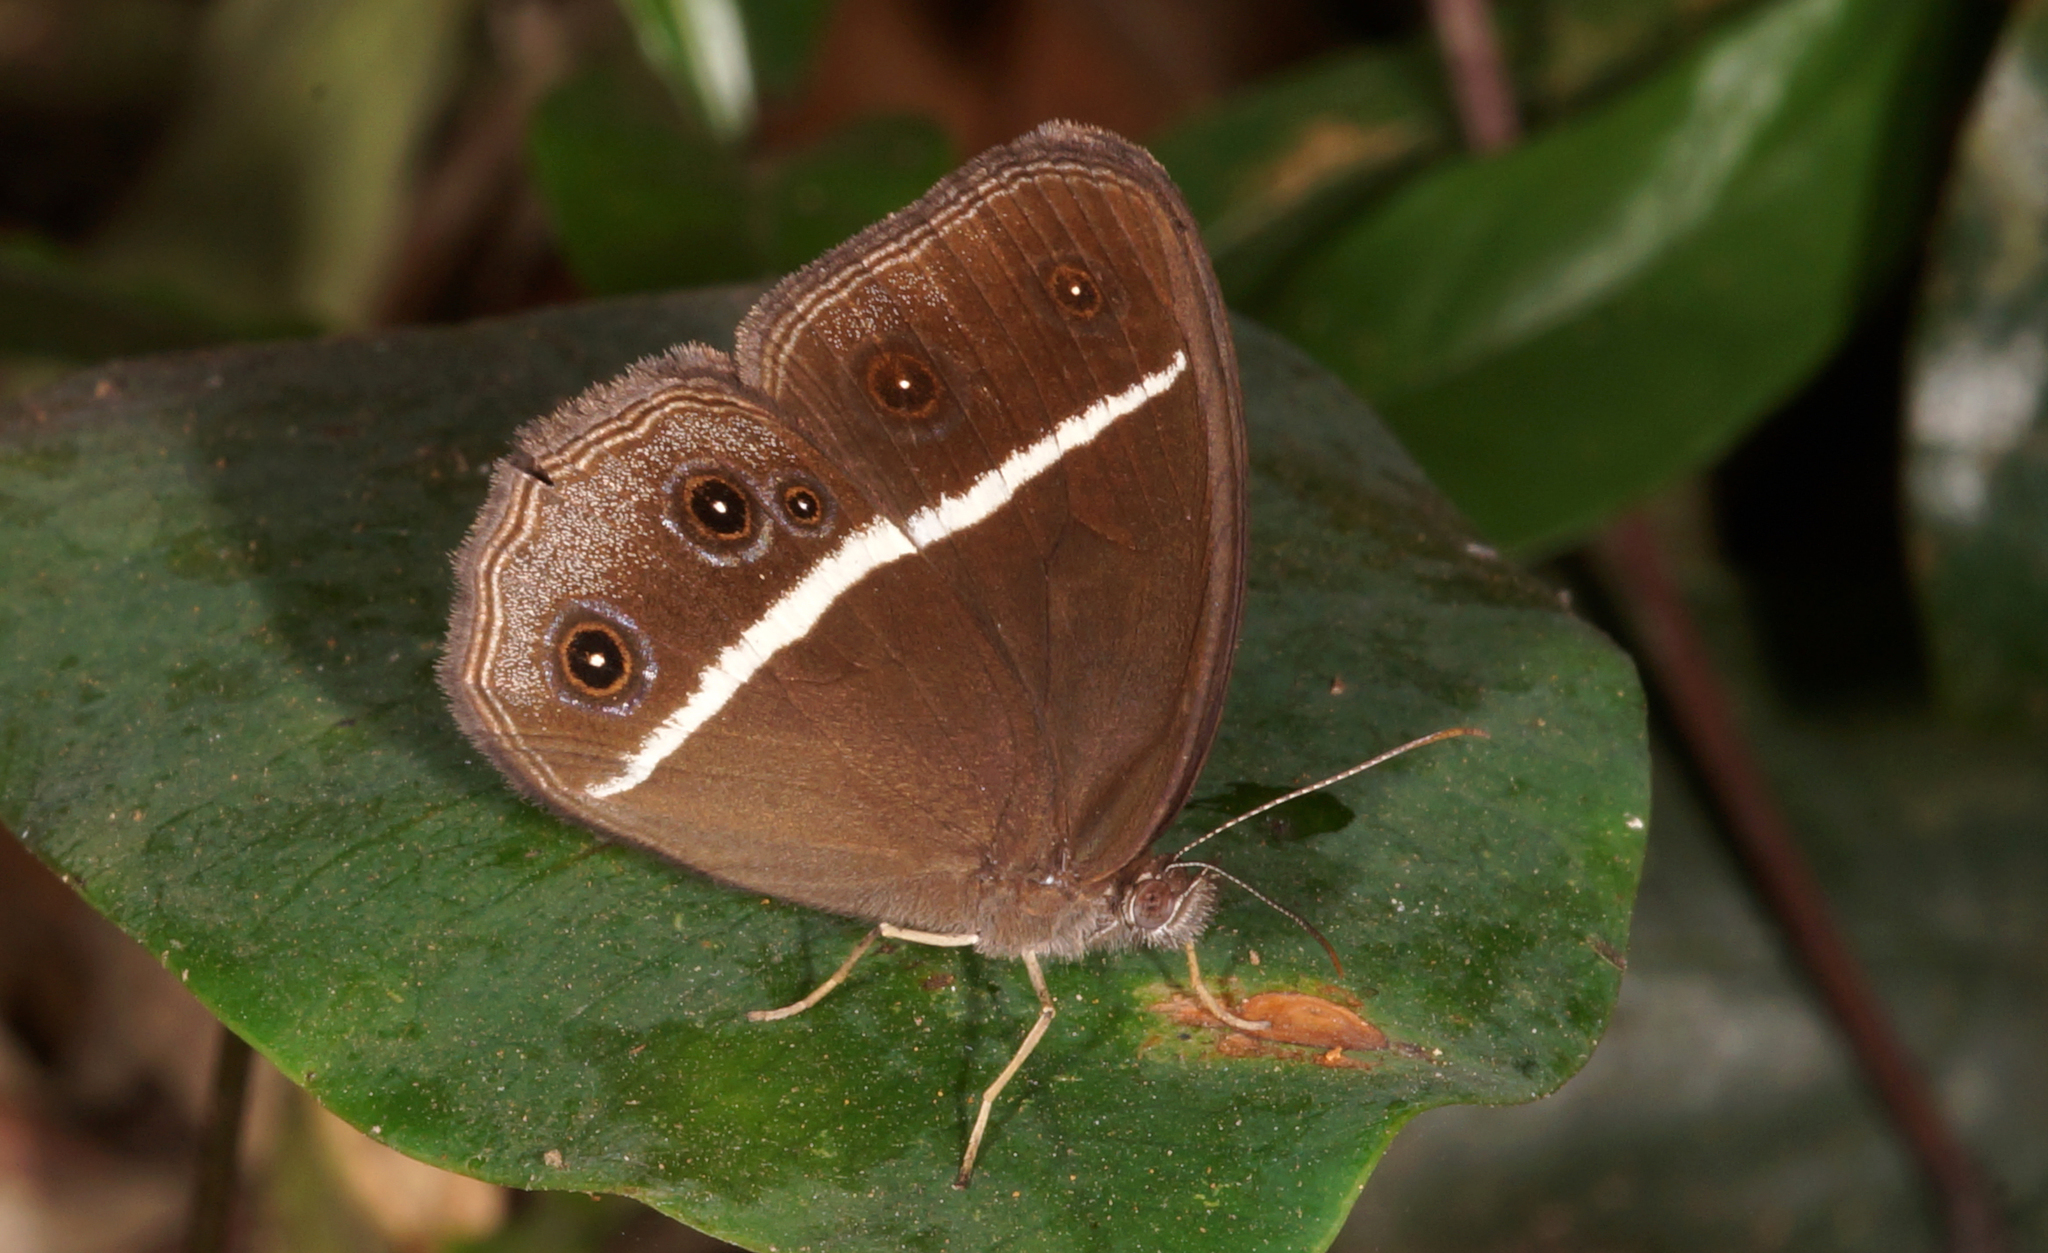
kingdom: Animalia
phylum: Arthropoda
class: Insecta
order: Lepidoptera
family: Nymphalidae
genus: Orsotriaena
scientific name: Orsotriaena medus
